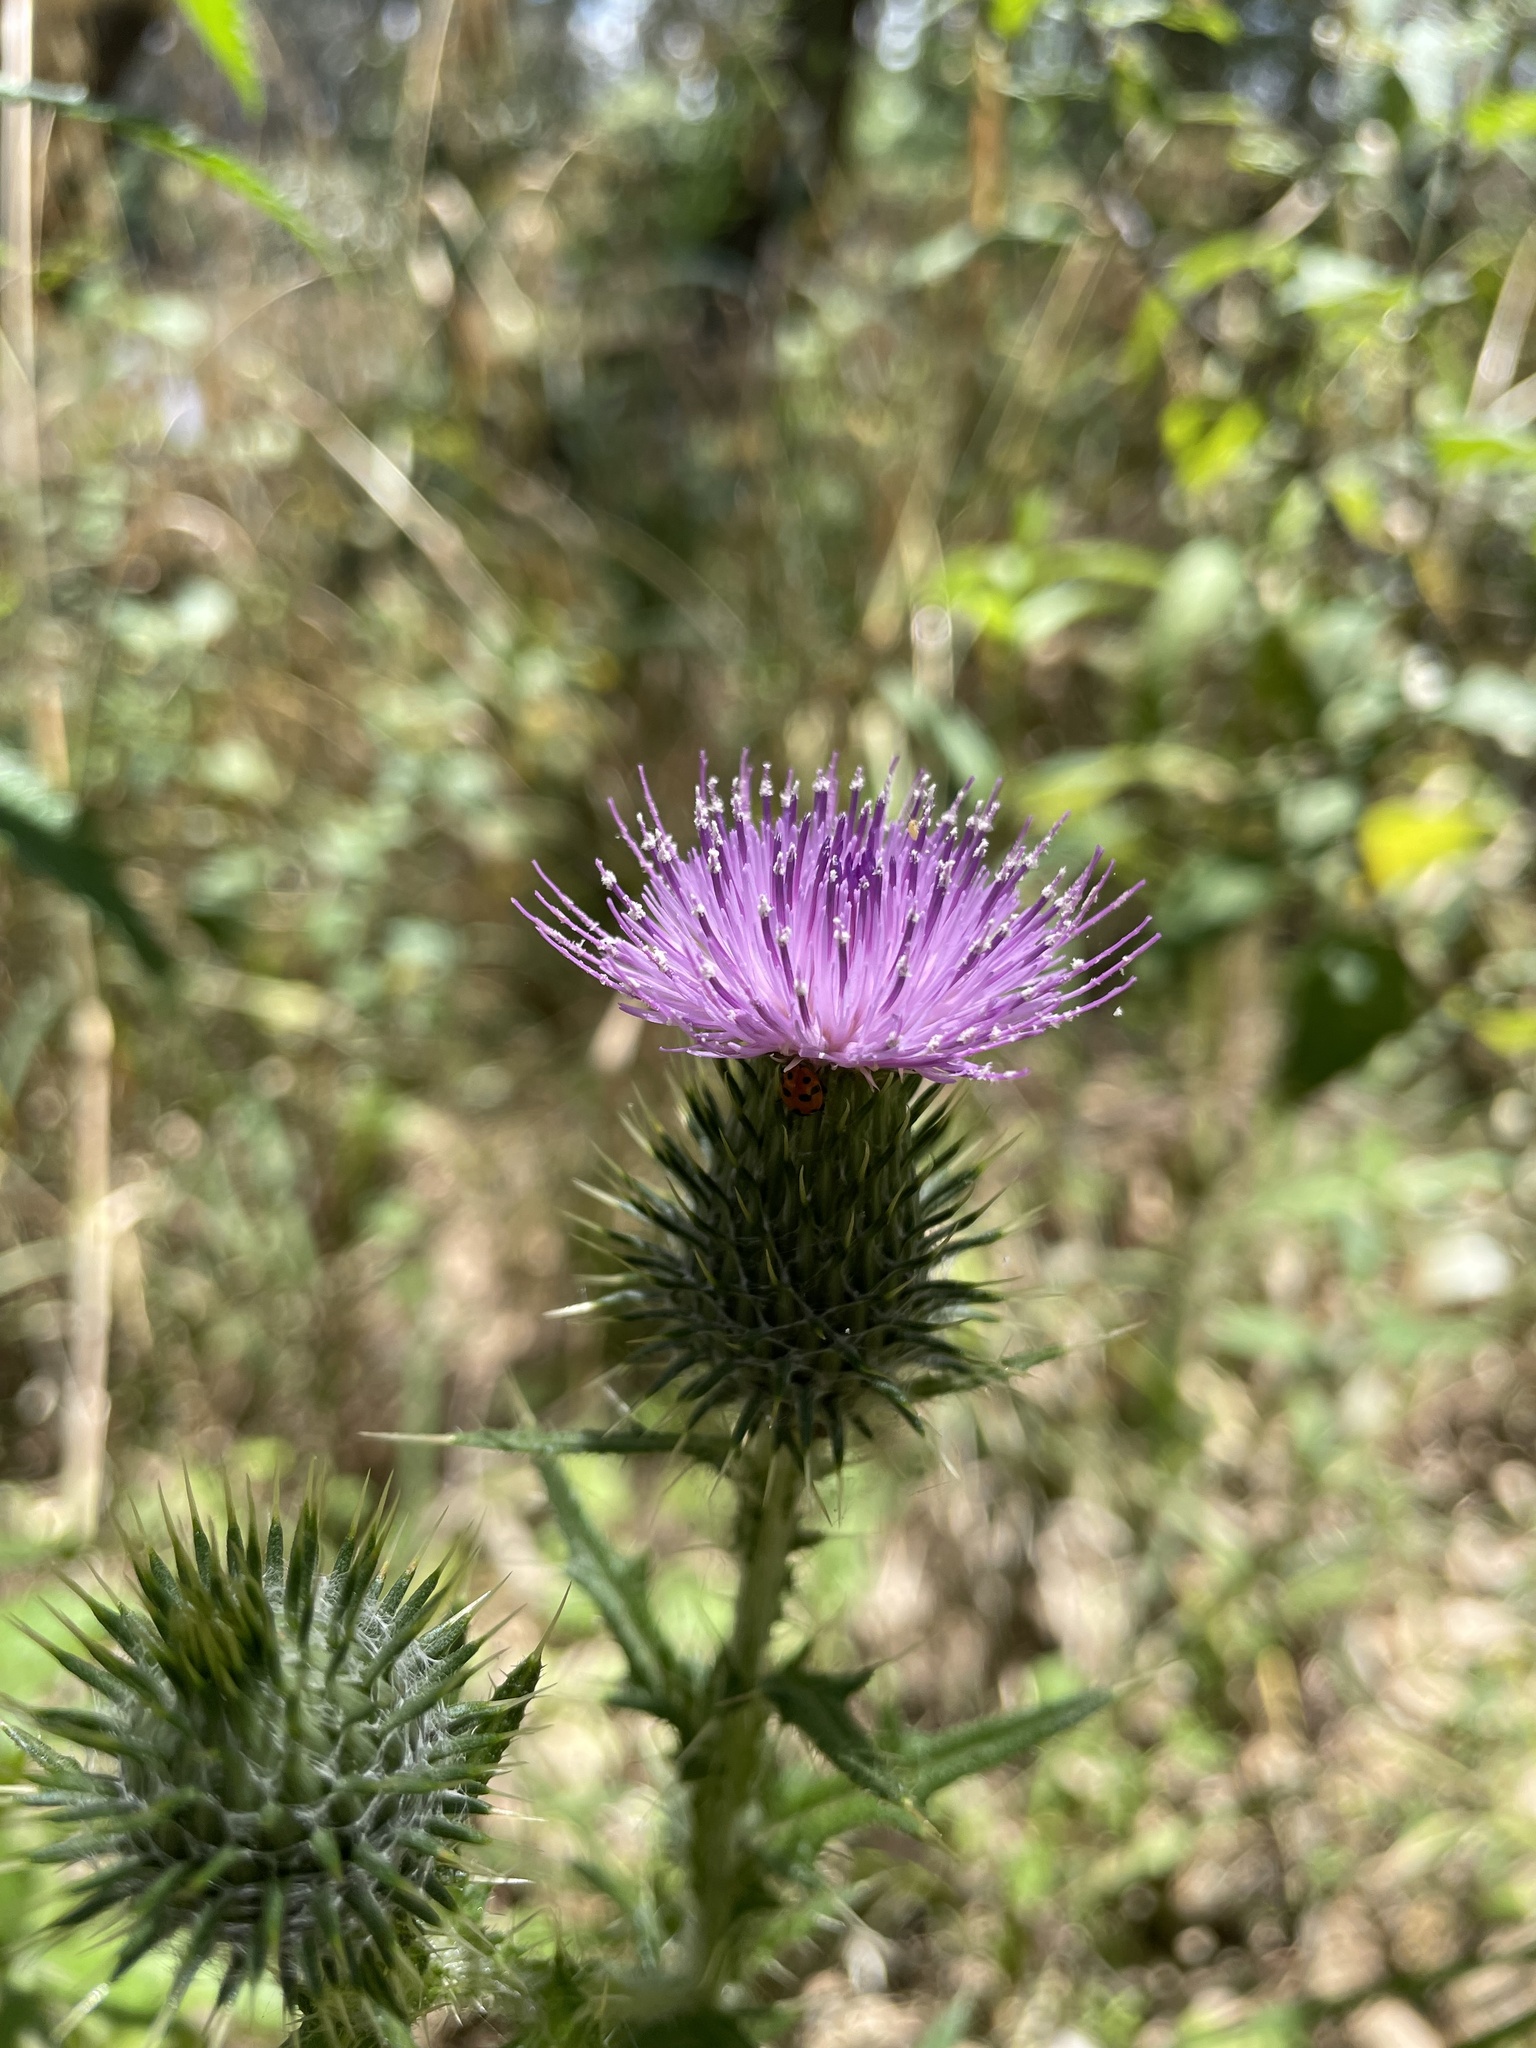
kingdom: Plantae
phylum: Tracheophyta
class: Magnoliopsida
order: Asterales
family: Asteraceae
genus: Cirsium
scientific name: Cirsium vulgare
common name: Bull thistle
